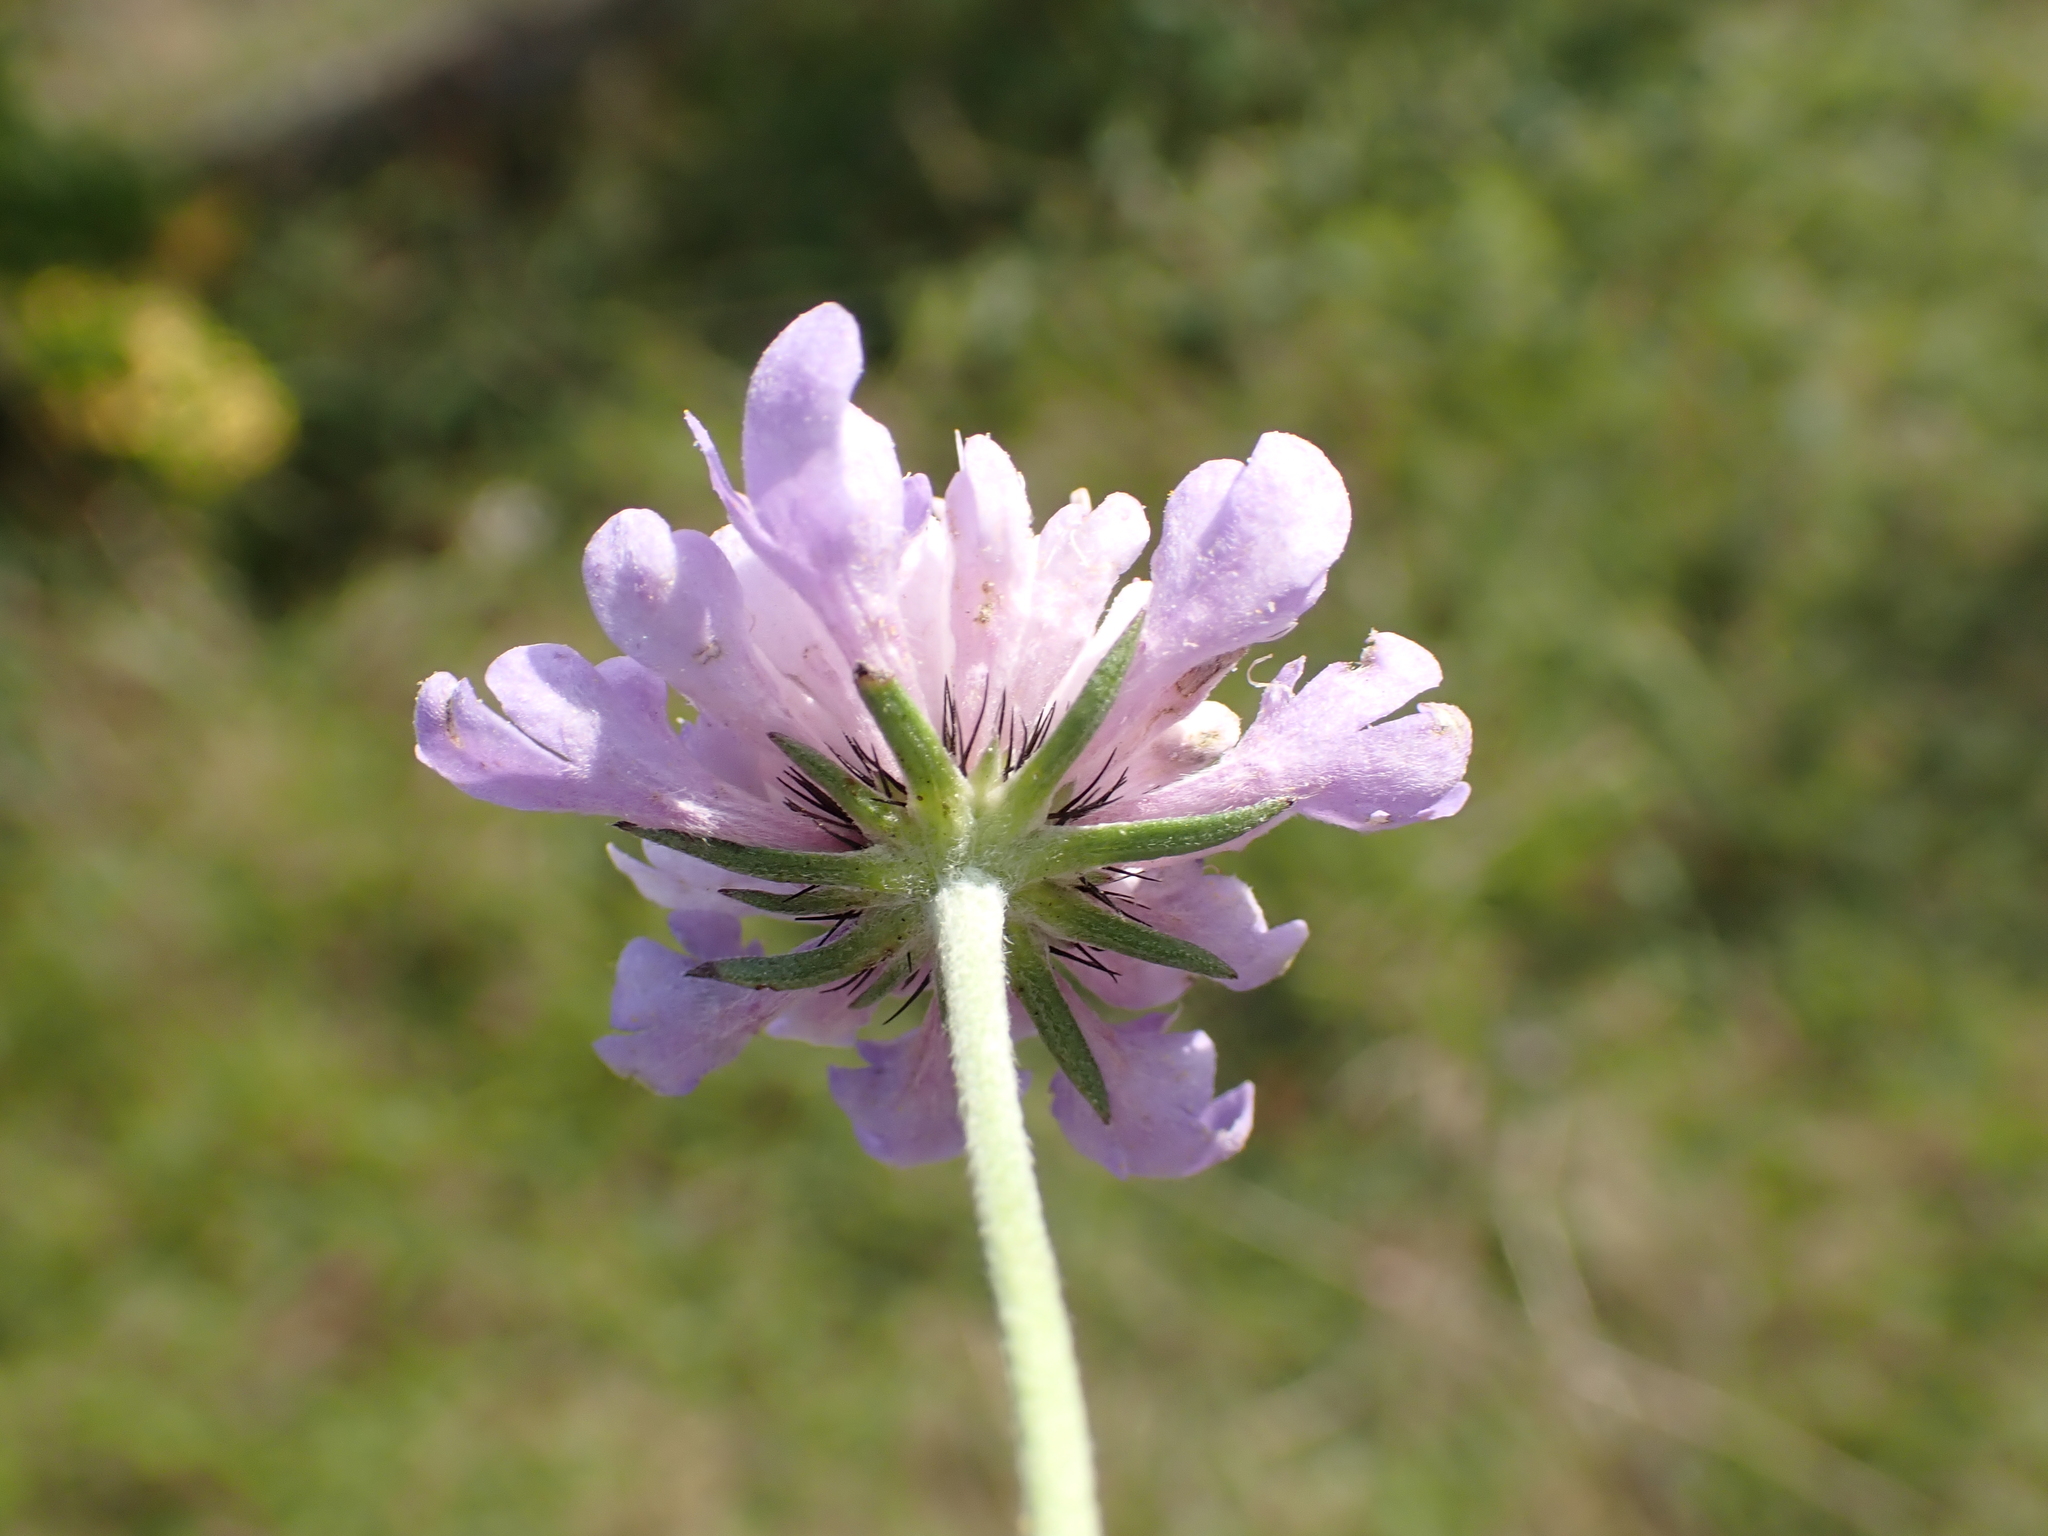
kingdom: Plantae
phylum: Tracheophyta
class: Magnoliopsida
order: Dipsacales
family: Caprifoliaceae
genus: Scabiosa
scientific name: Scabiosa columbaria
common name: Small scabious
